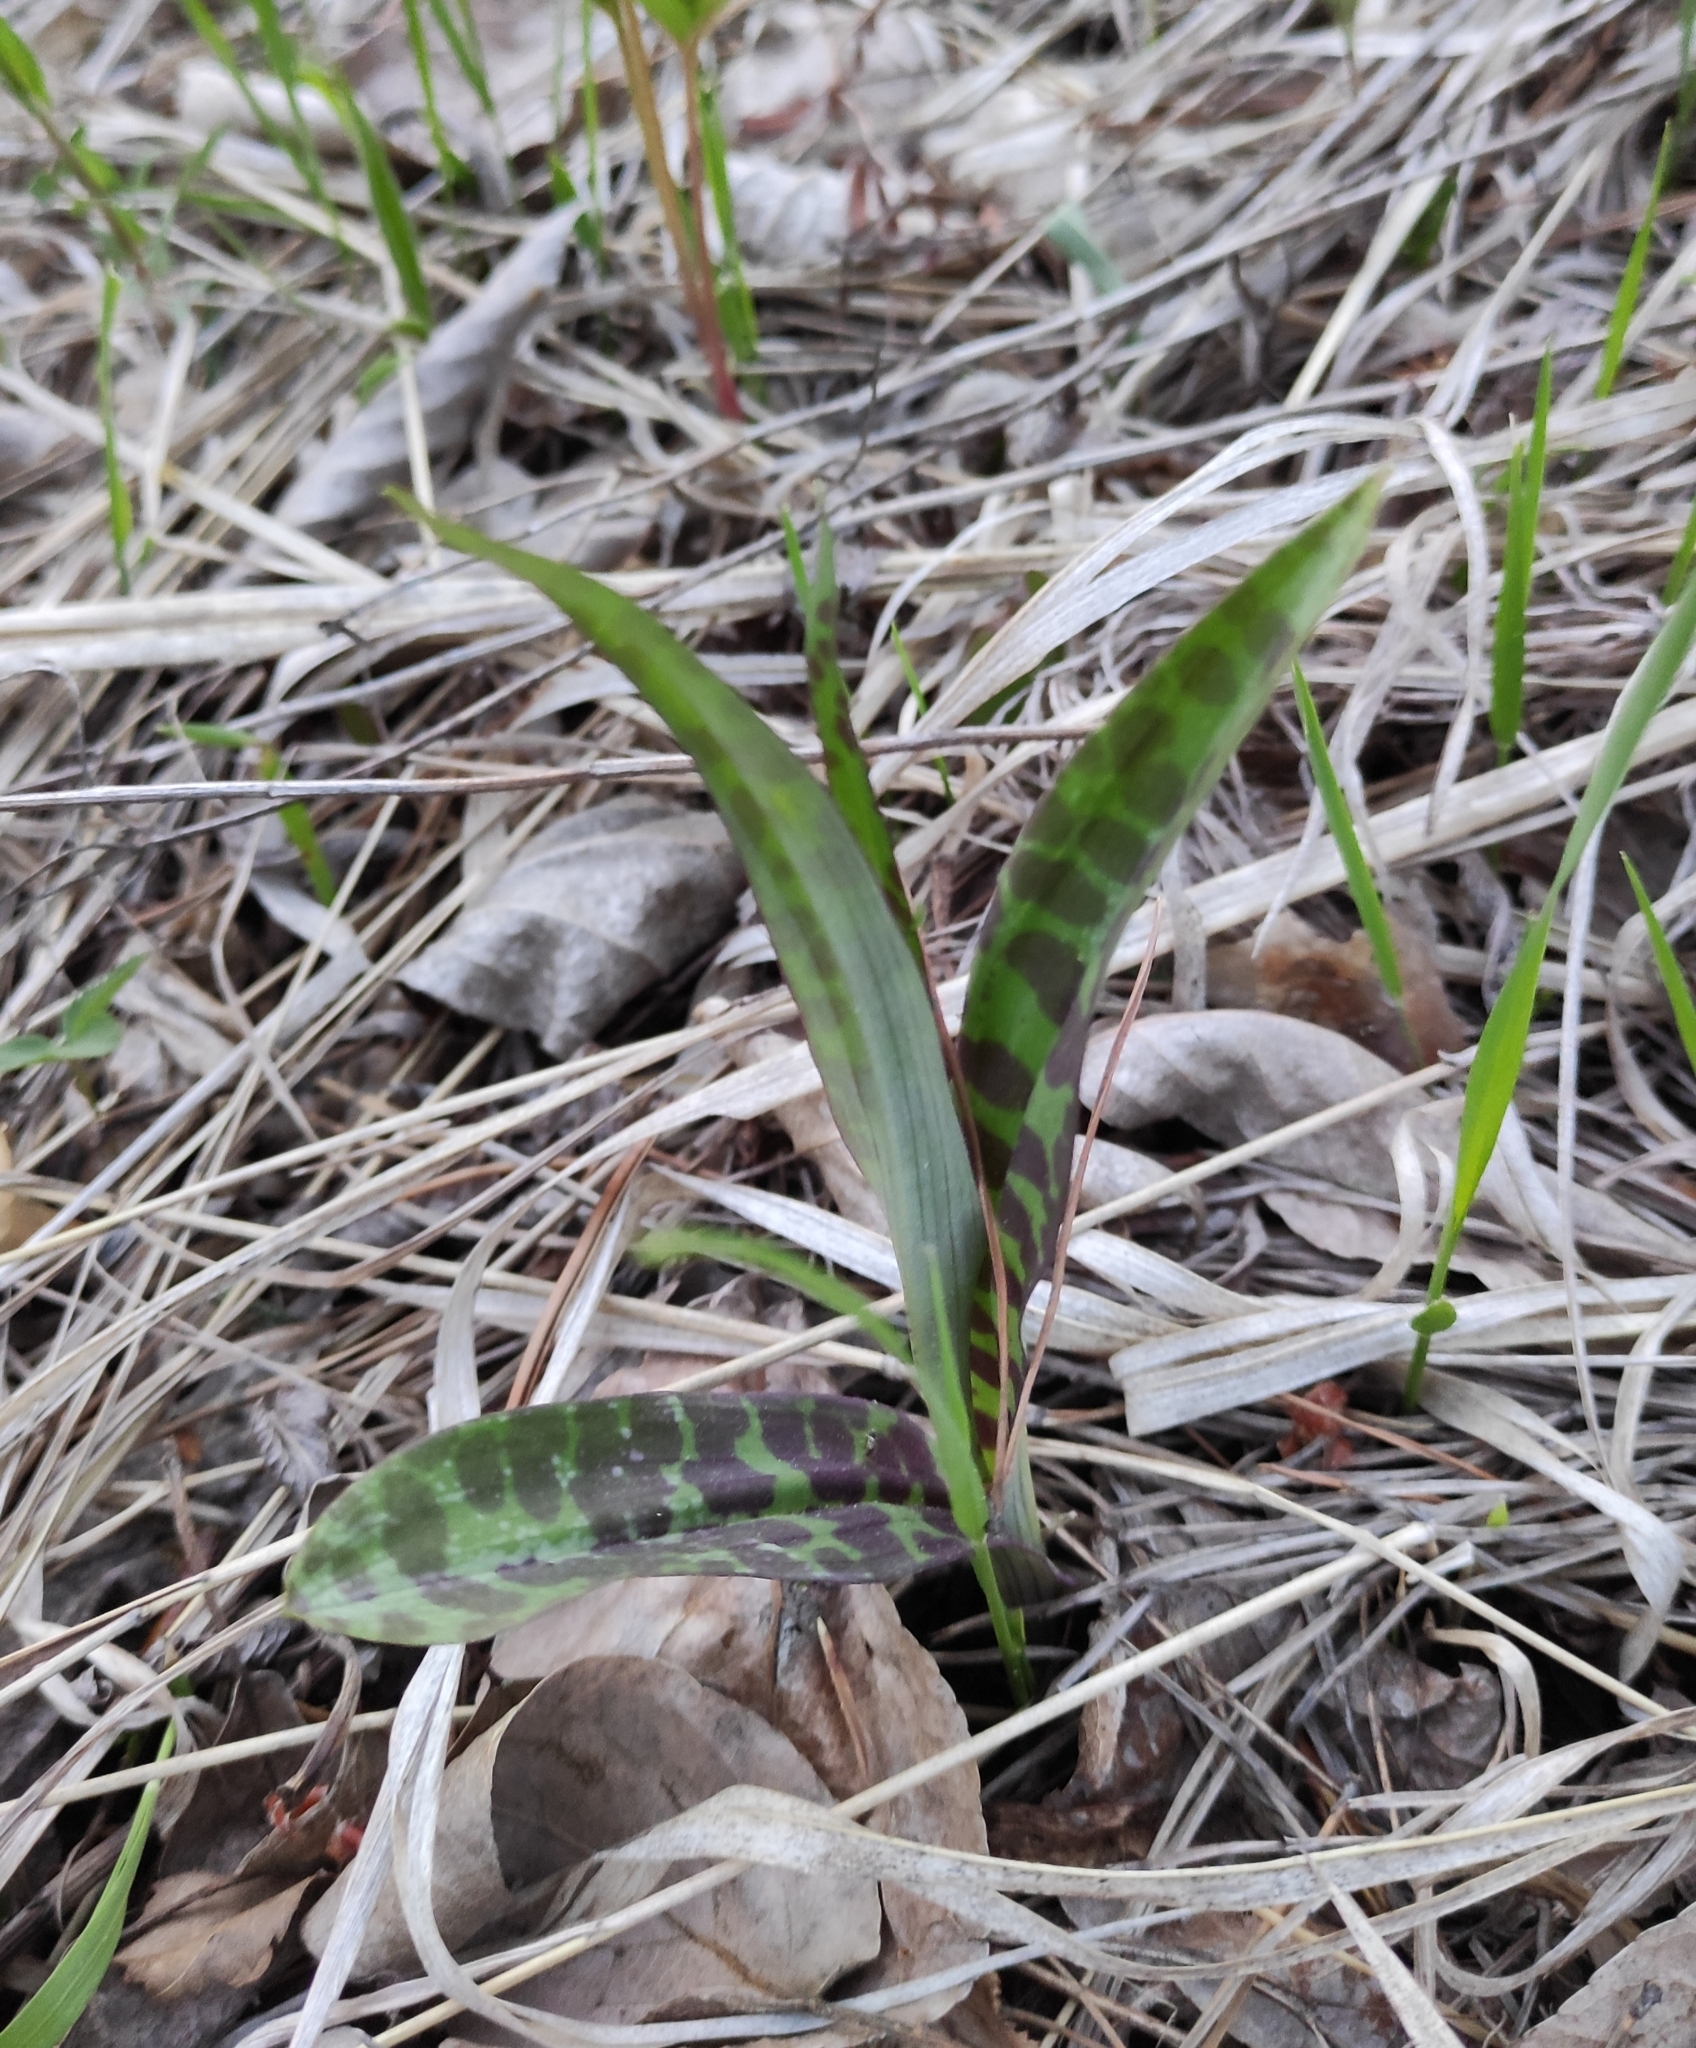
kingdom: Plantae
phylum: Tracheophyta
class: Liliopsida
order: Asparagales
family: Orchidaceae
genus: Dactylorhiza
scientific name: Dactylorhiza maculata
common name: Heath spotted-orchid
